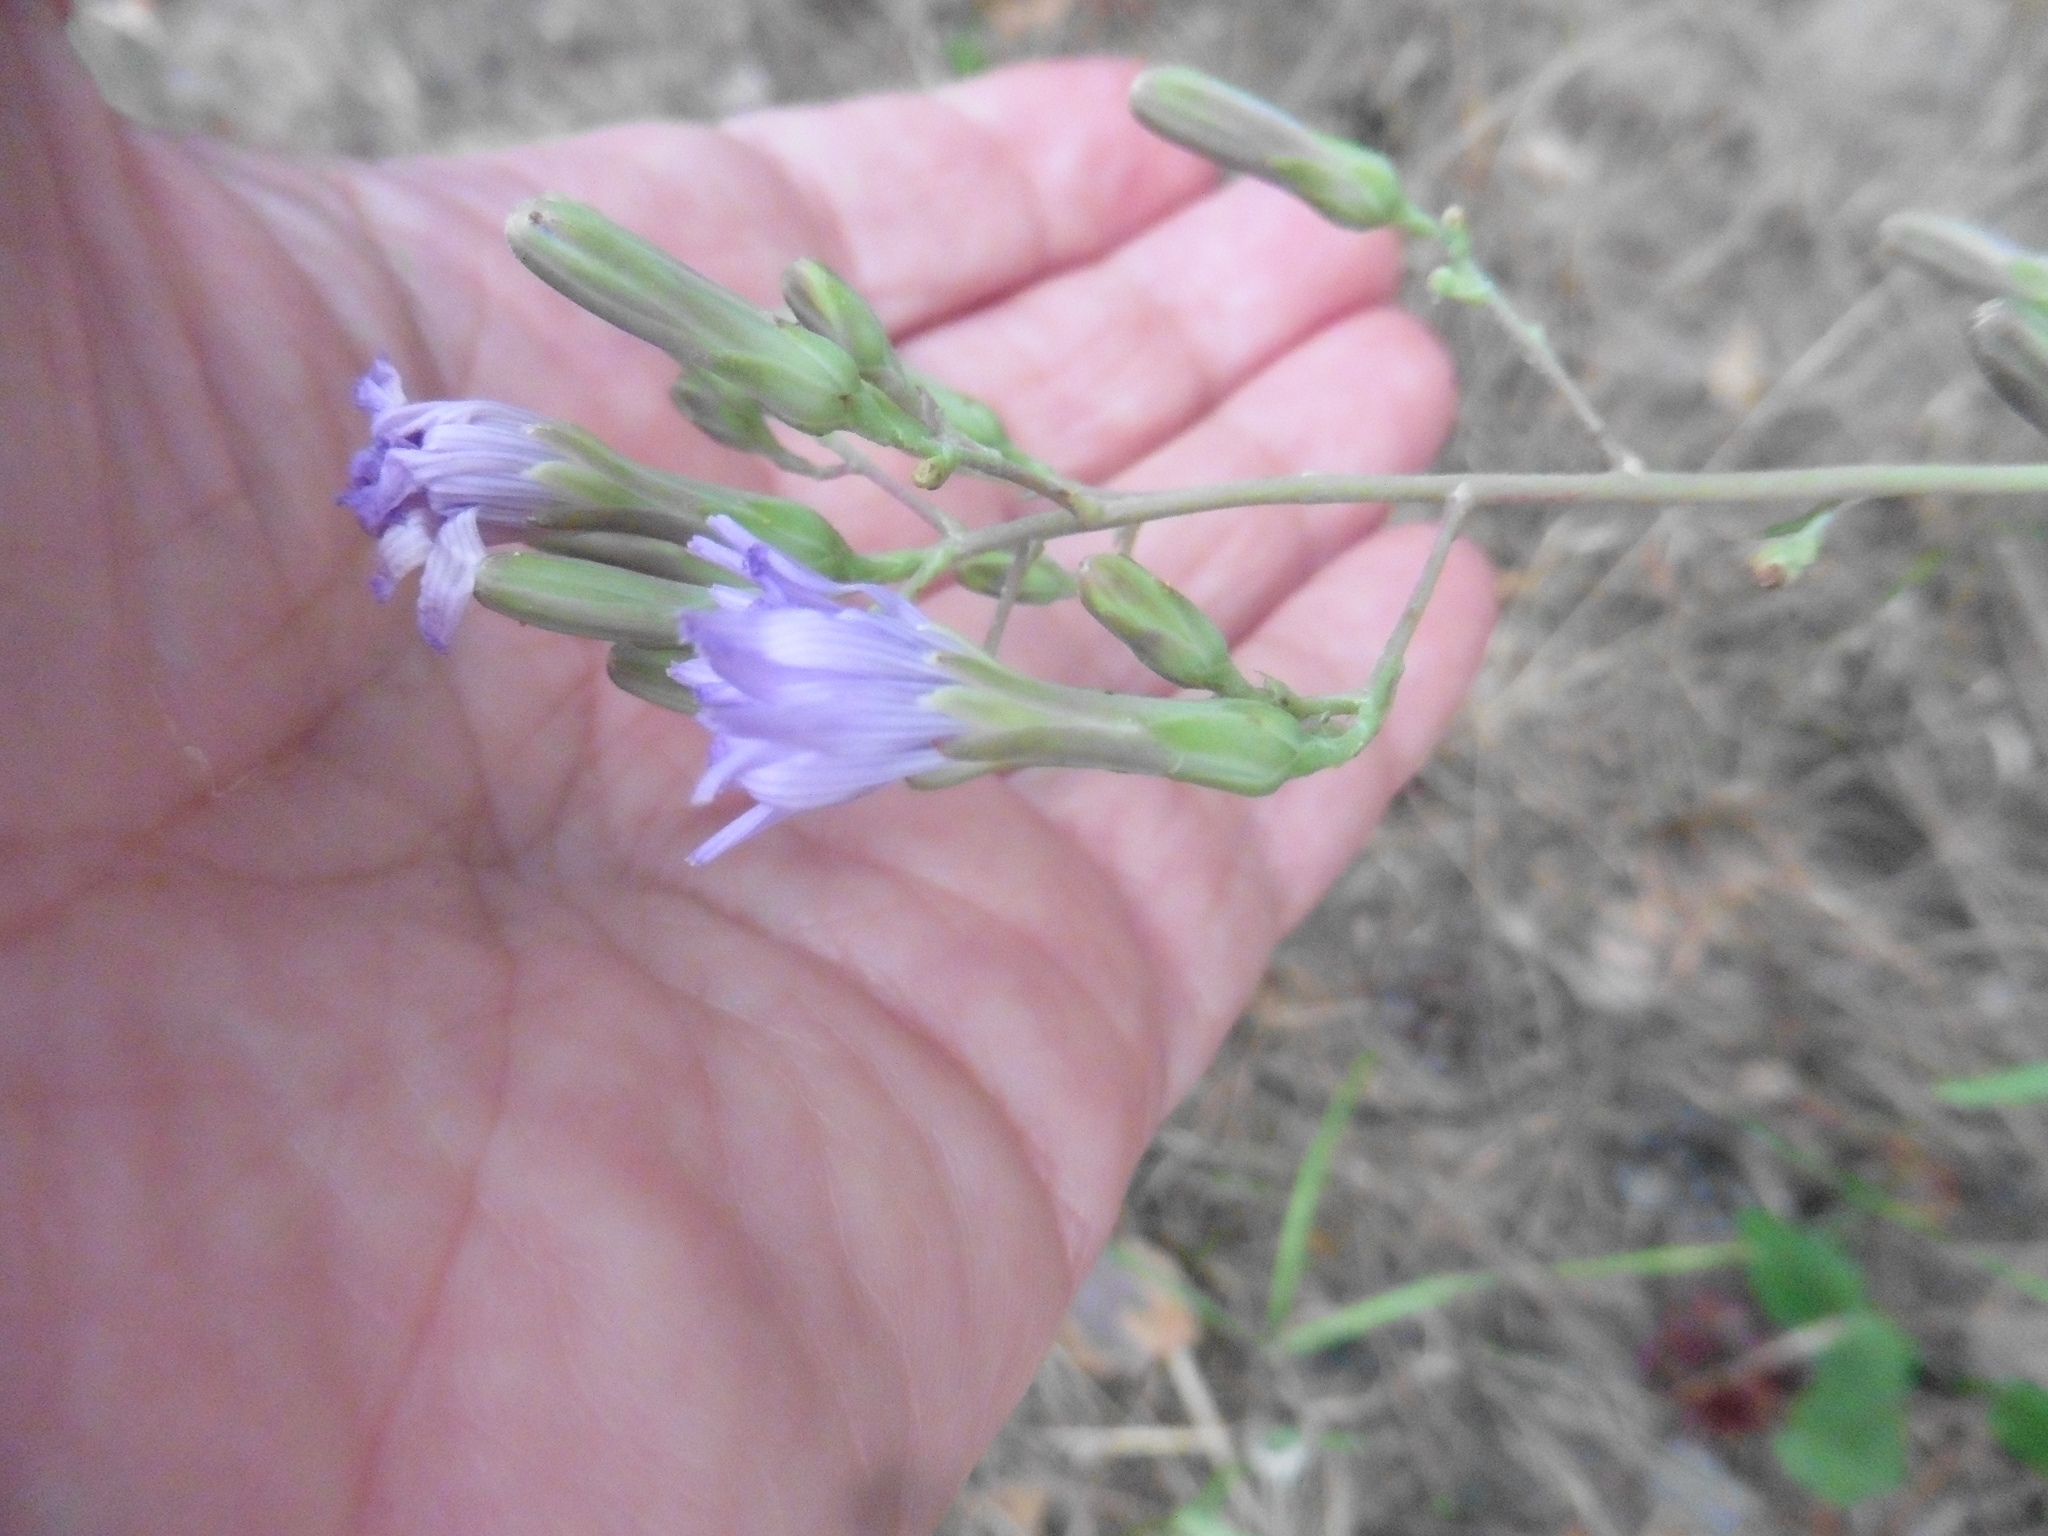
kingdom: Plantae
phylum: Tracheophyta
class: Magnoliopsida
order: Asterales
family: Asteraceae
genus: Lactuca
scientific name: Lactuca tatarica
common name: Blue lettuce
